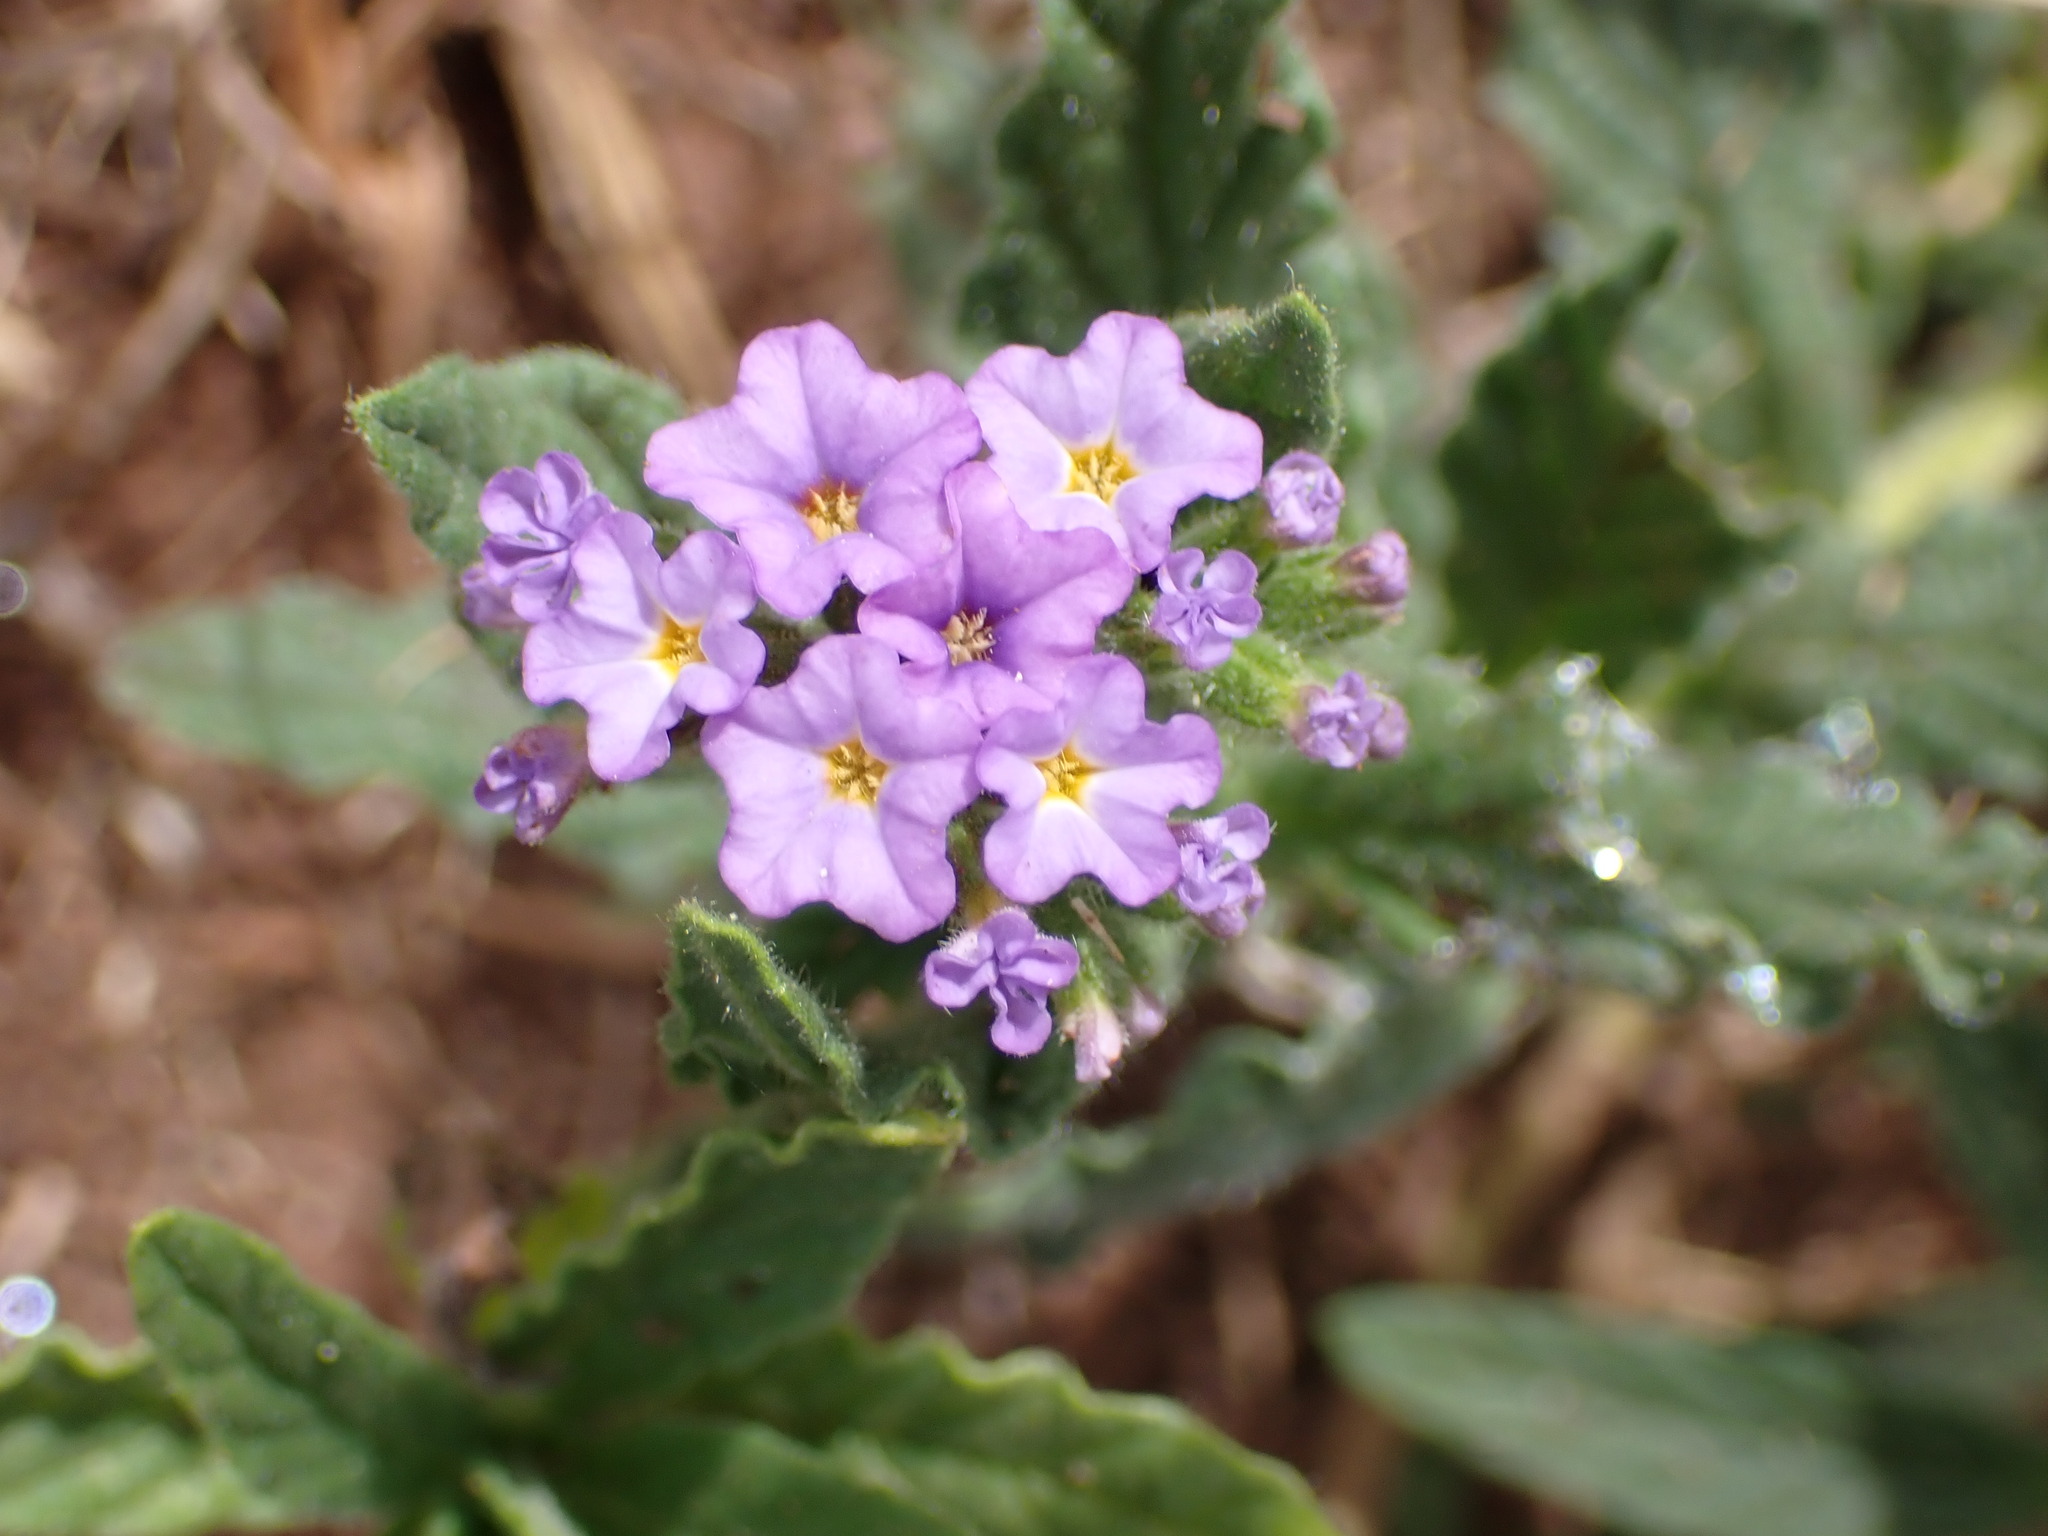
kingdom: Plantae
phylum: Tracheophyta
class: Magnoliopsida
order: Boraginales
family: Heliotropiaceae
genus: Heliotropium
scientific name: Heliotropium amplexicaule
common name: Clasping heliotrope
